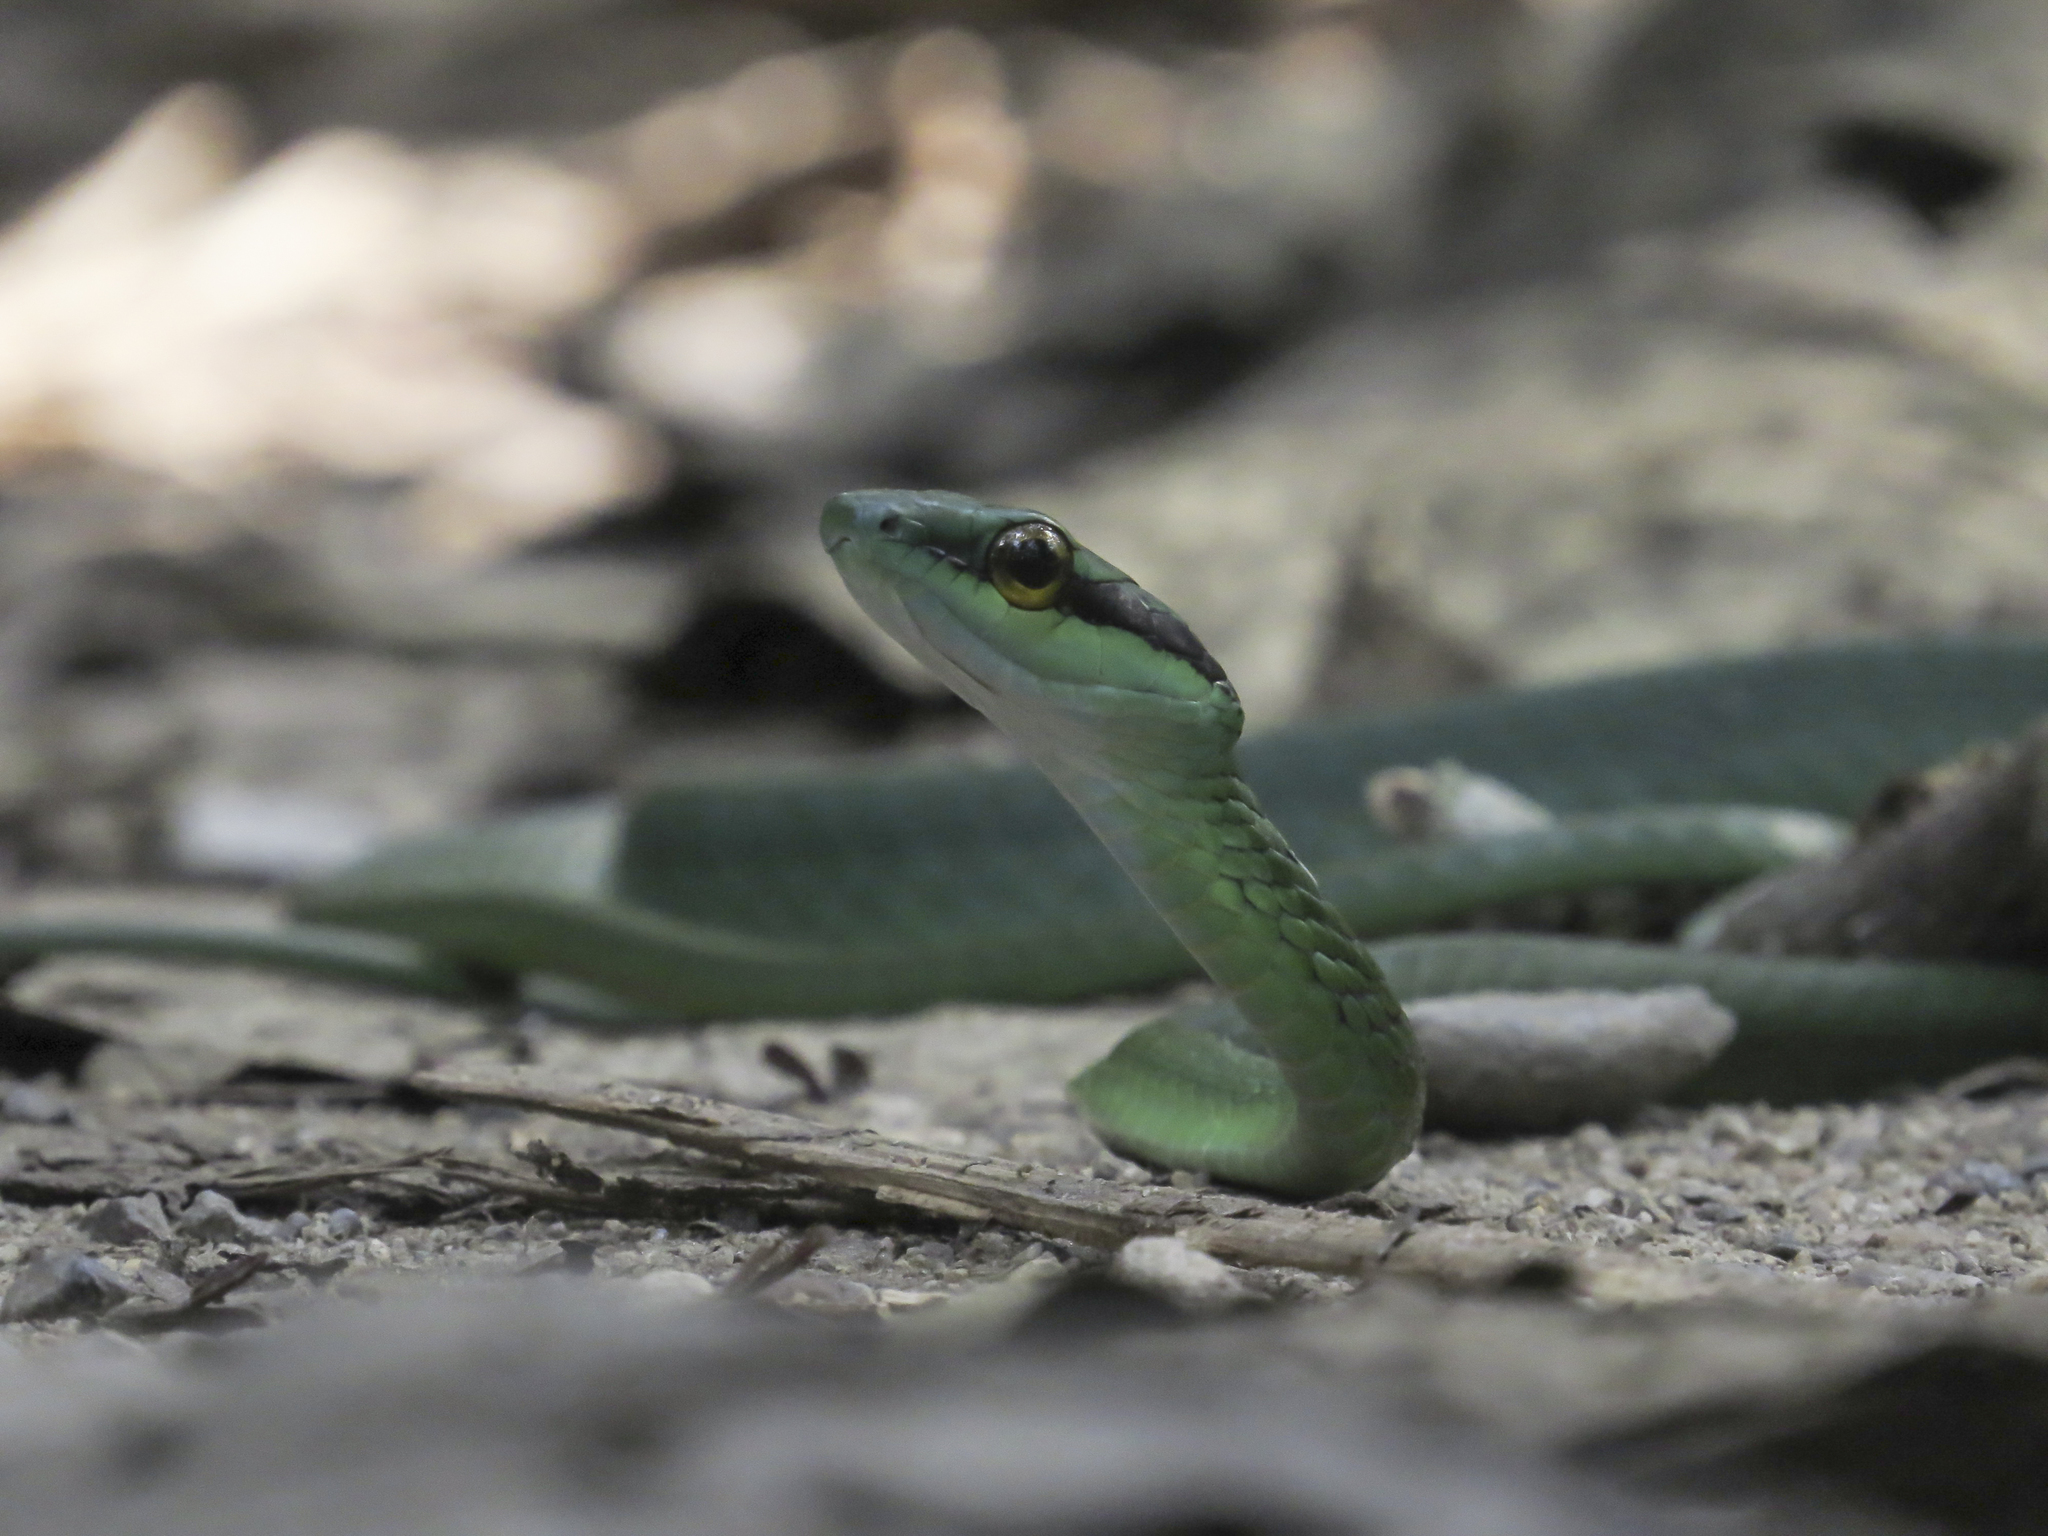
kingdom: Animalia
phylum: Chordata
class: Squamata
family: Colubridae
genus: Leptophis
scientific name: Leptophis ahaetulla
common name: Parrot snake
